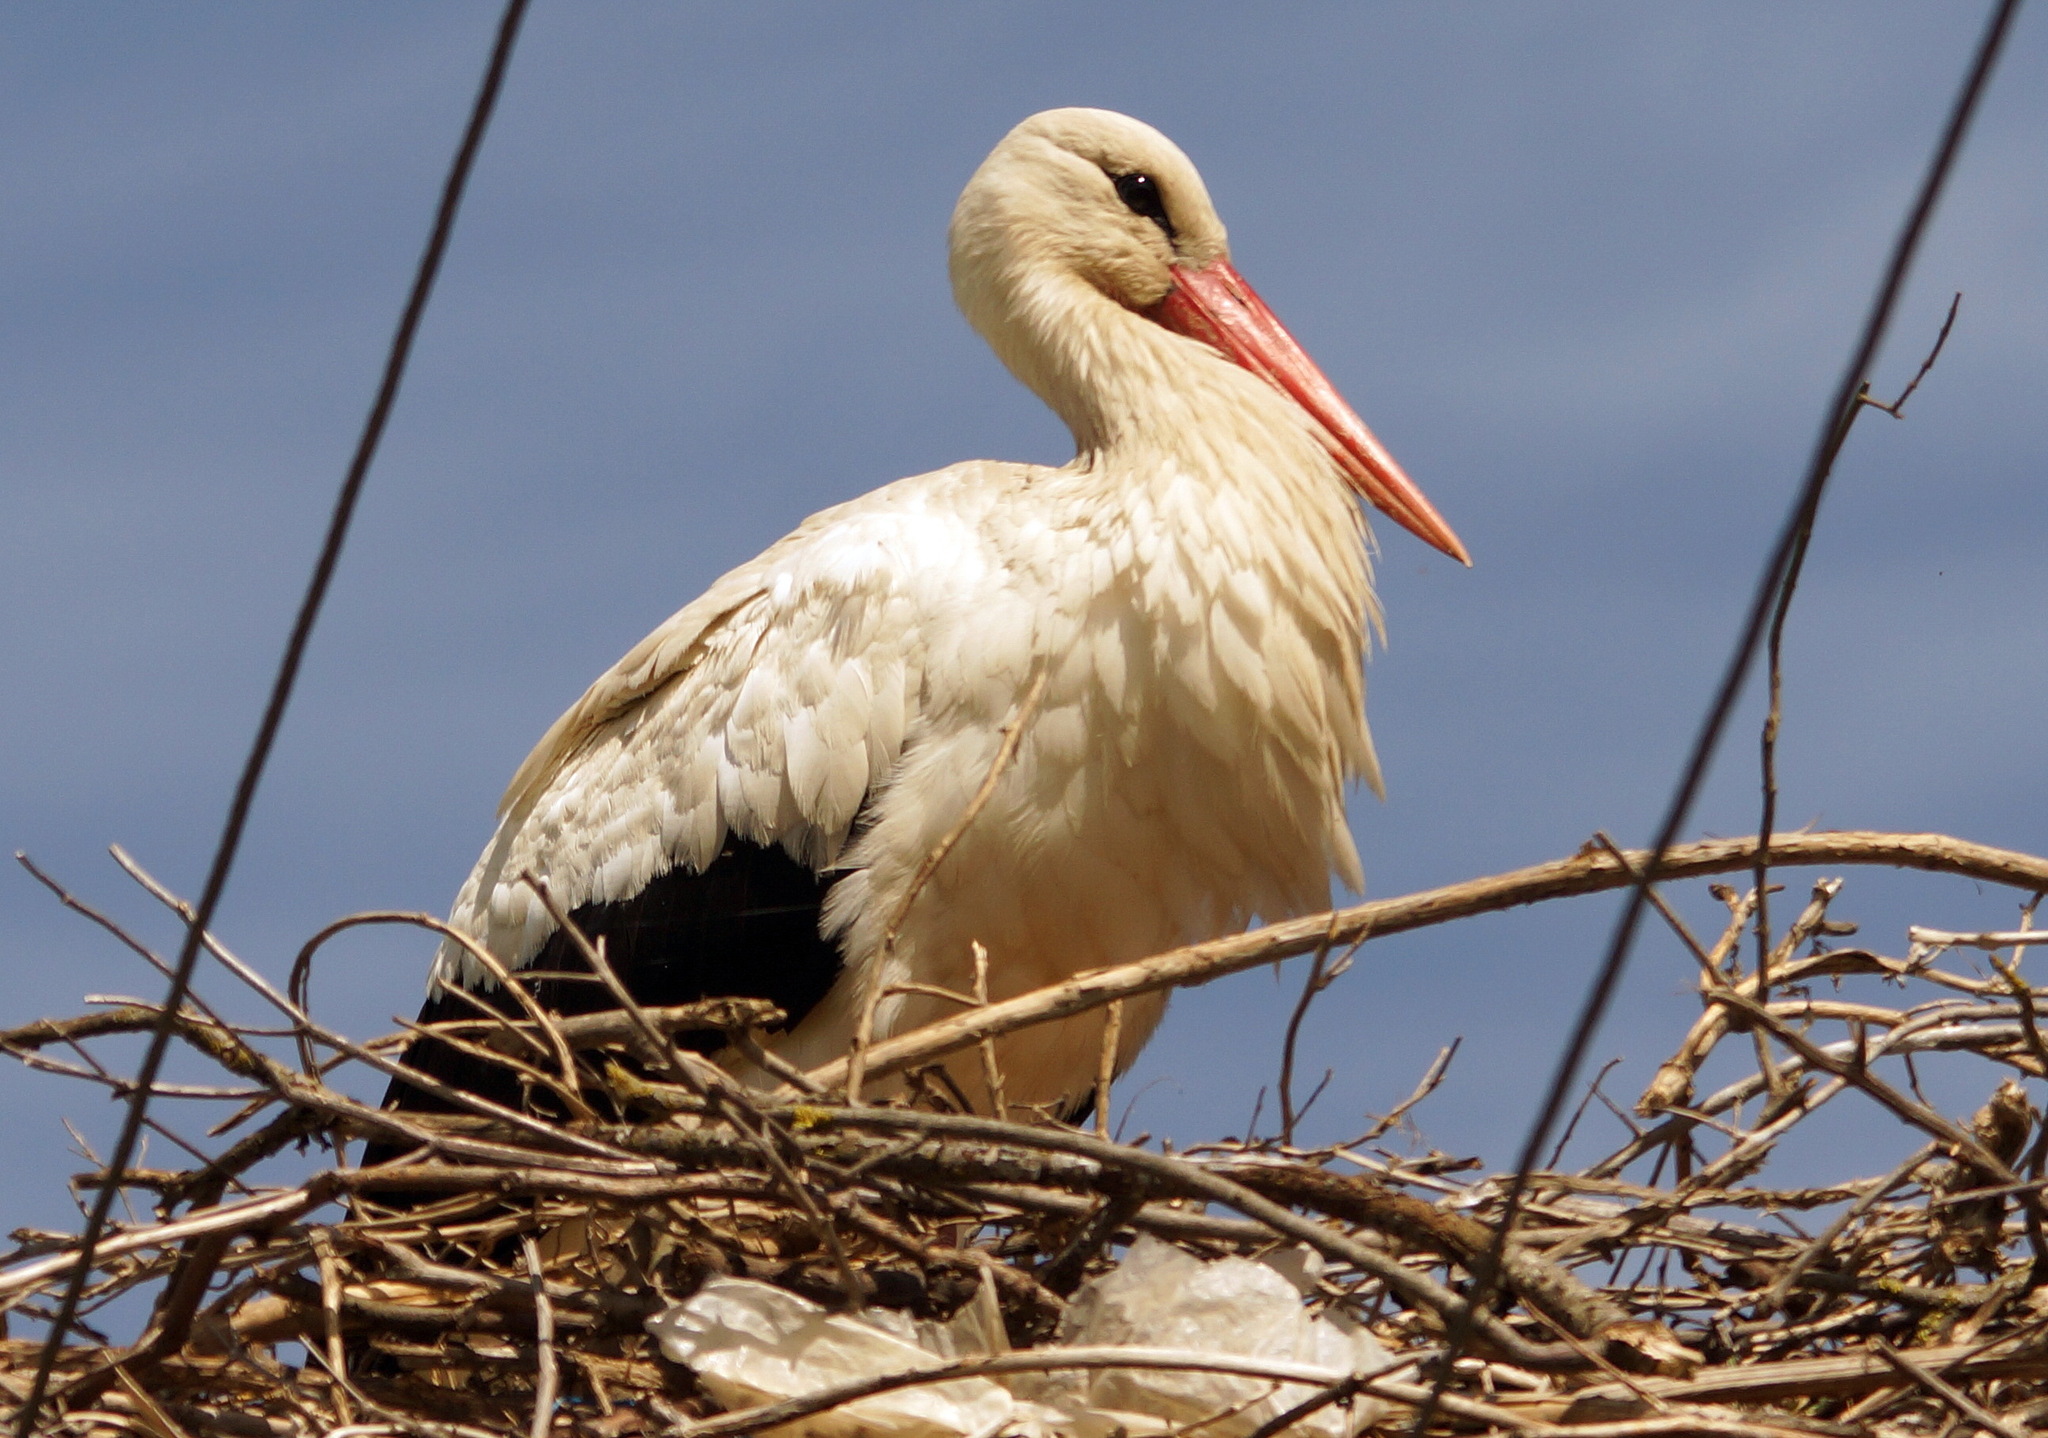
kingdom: Animalia
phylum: Chordata
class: Aves
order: Ciconiiformes
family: Ciconiidae
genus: Ciconia
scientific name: Ciconia ciconia
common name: White stork
